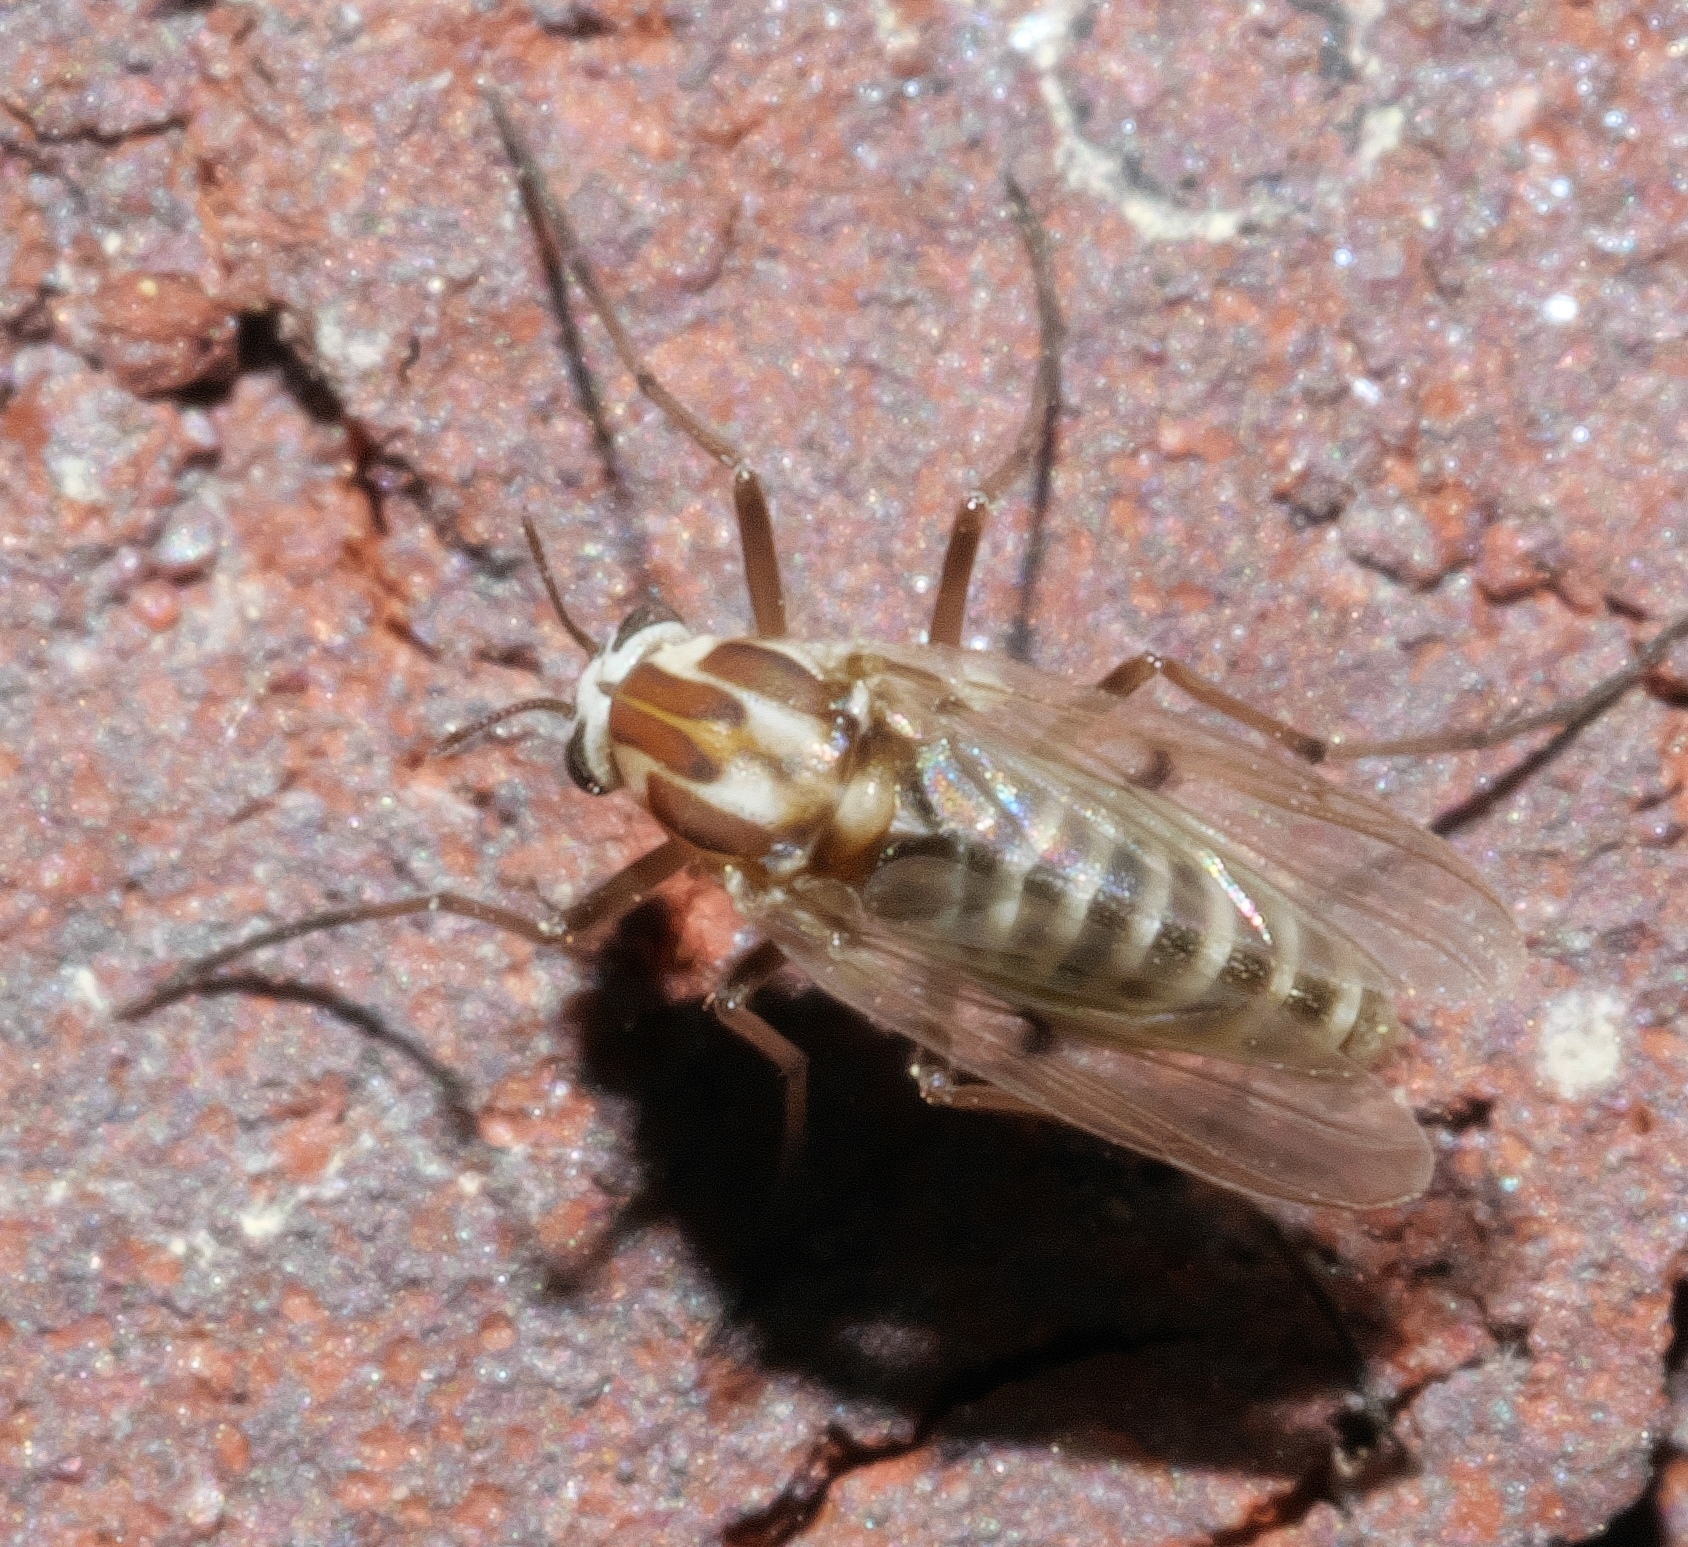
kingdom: Animalia
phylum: Arthropoda
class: Insecta
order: Diptera
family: Chironomidae
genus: Procladius
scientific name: Procladius bellus
